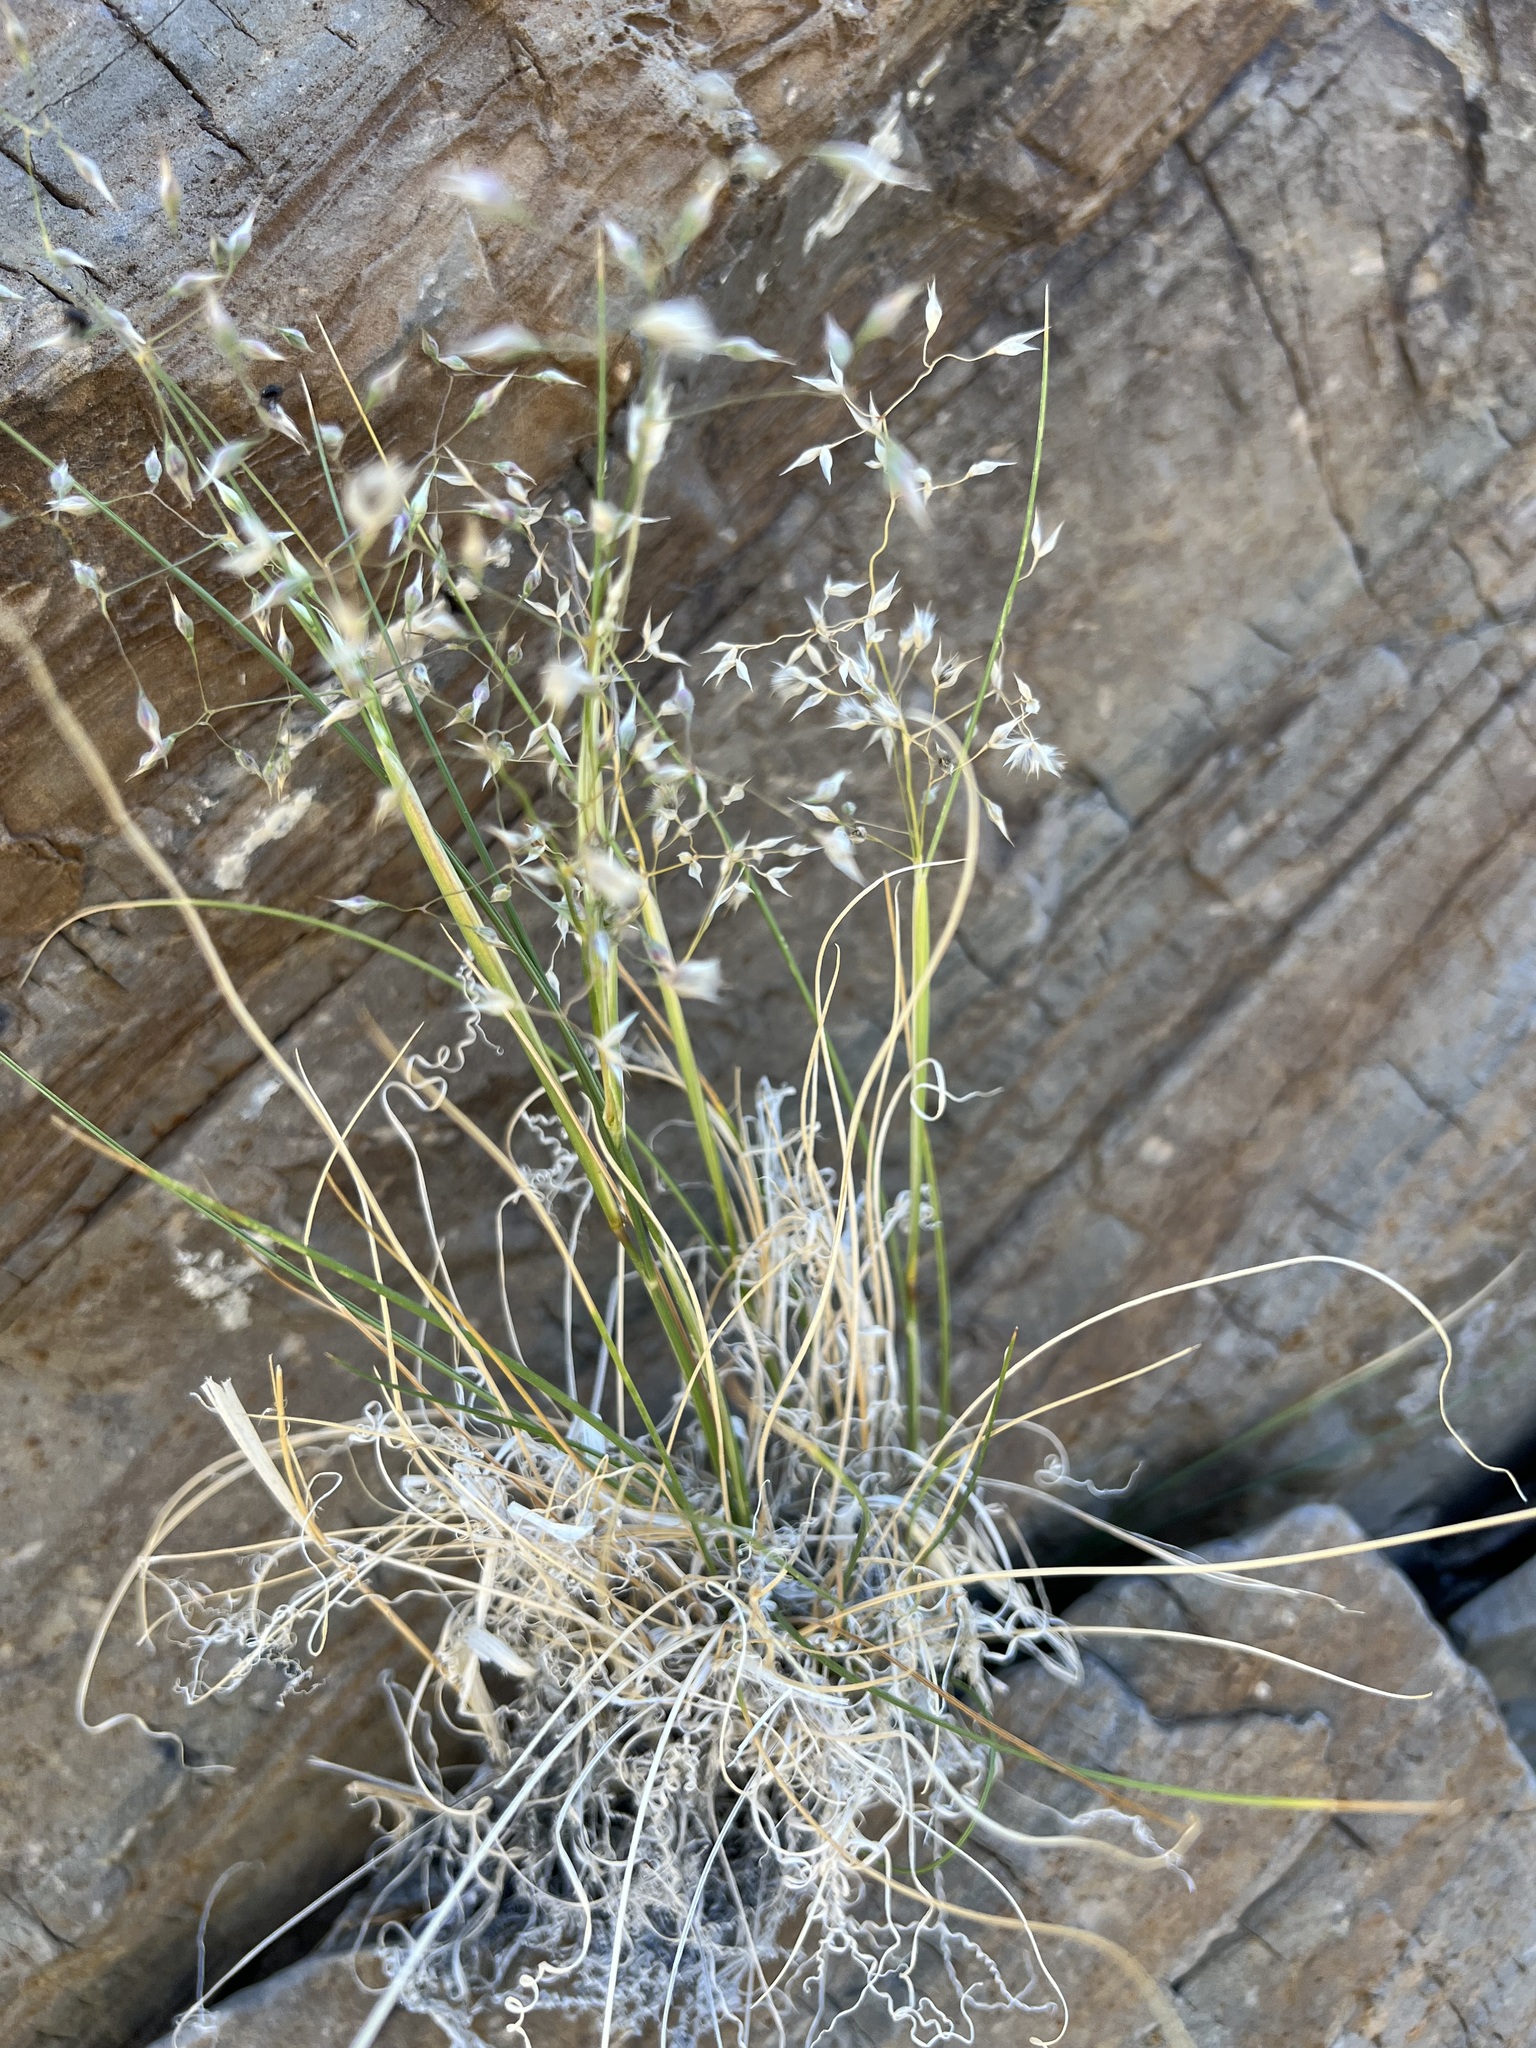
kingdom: Plantae
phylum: Tracheophyta
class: Liliopsida
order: Poales
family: Poaceae
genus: Eriocoma
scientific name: Eriocoma hymenoides
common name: Indian mountain ricegrass
